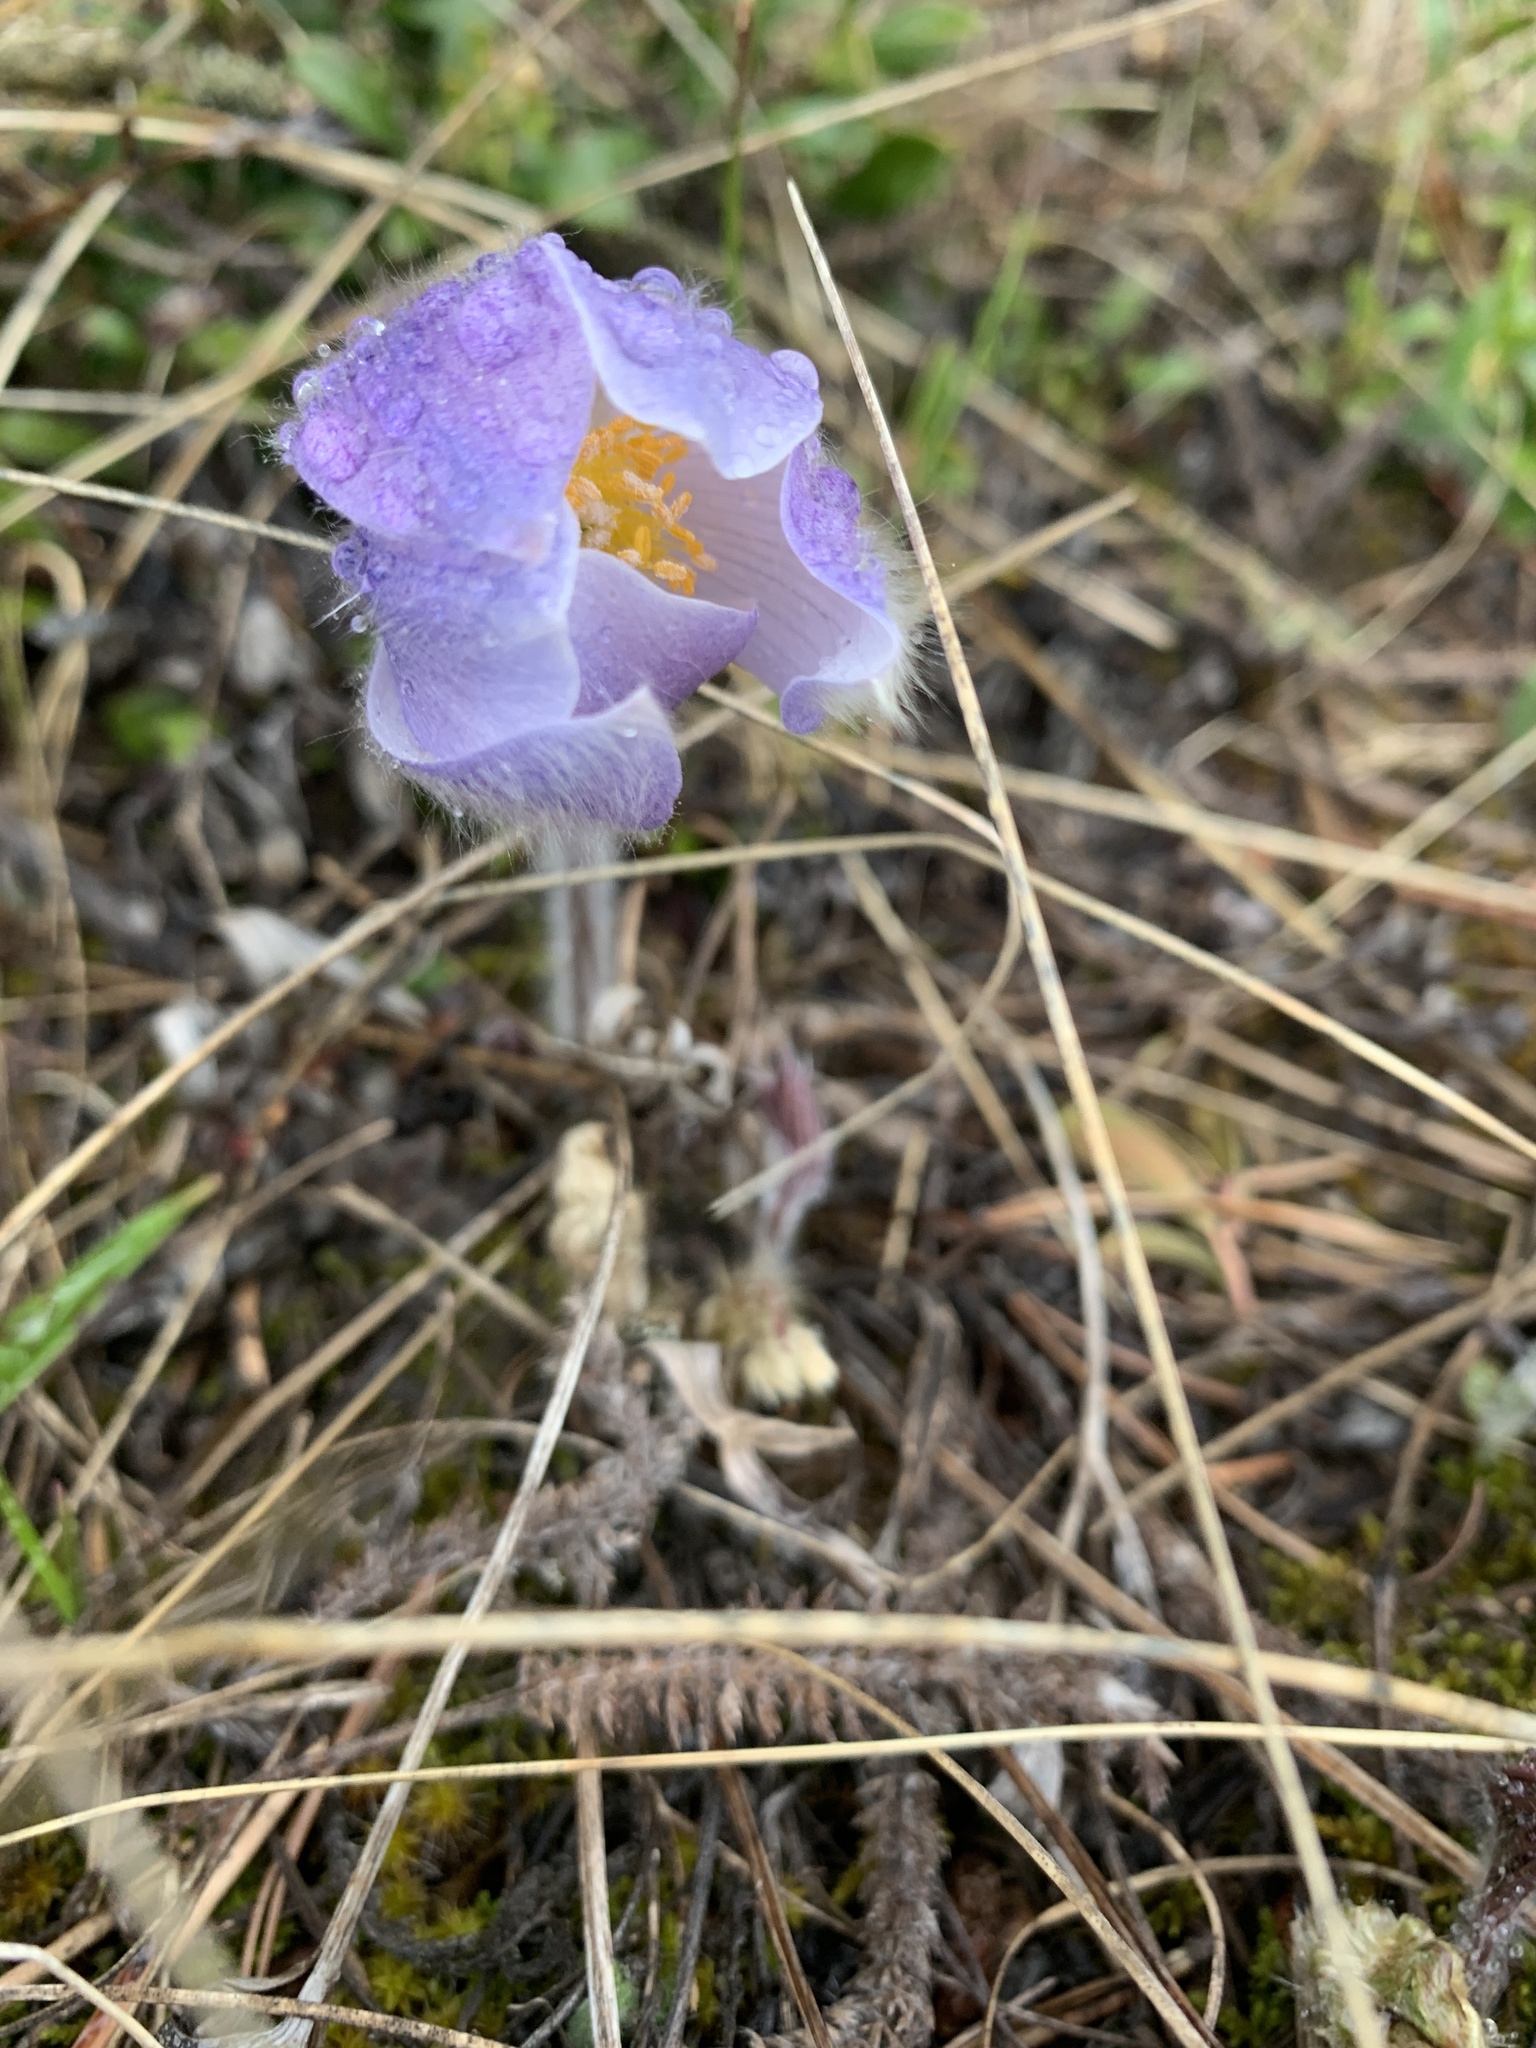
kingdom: Plantae
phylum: Tracheophyta
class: Magnoliopsida
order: Ranunculales
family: Ranunculaceae
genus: Pulsatilla
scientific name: Pulsatilla nuttalliana
